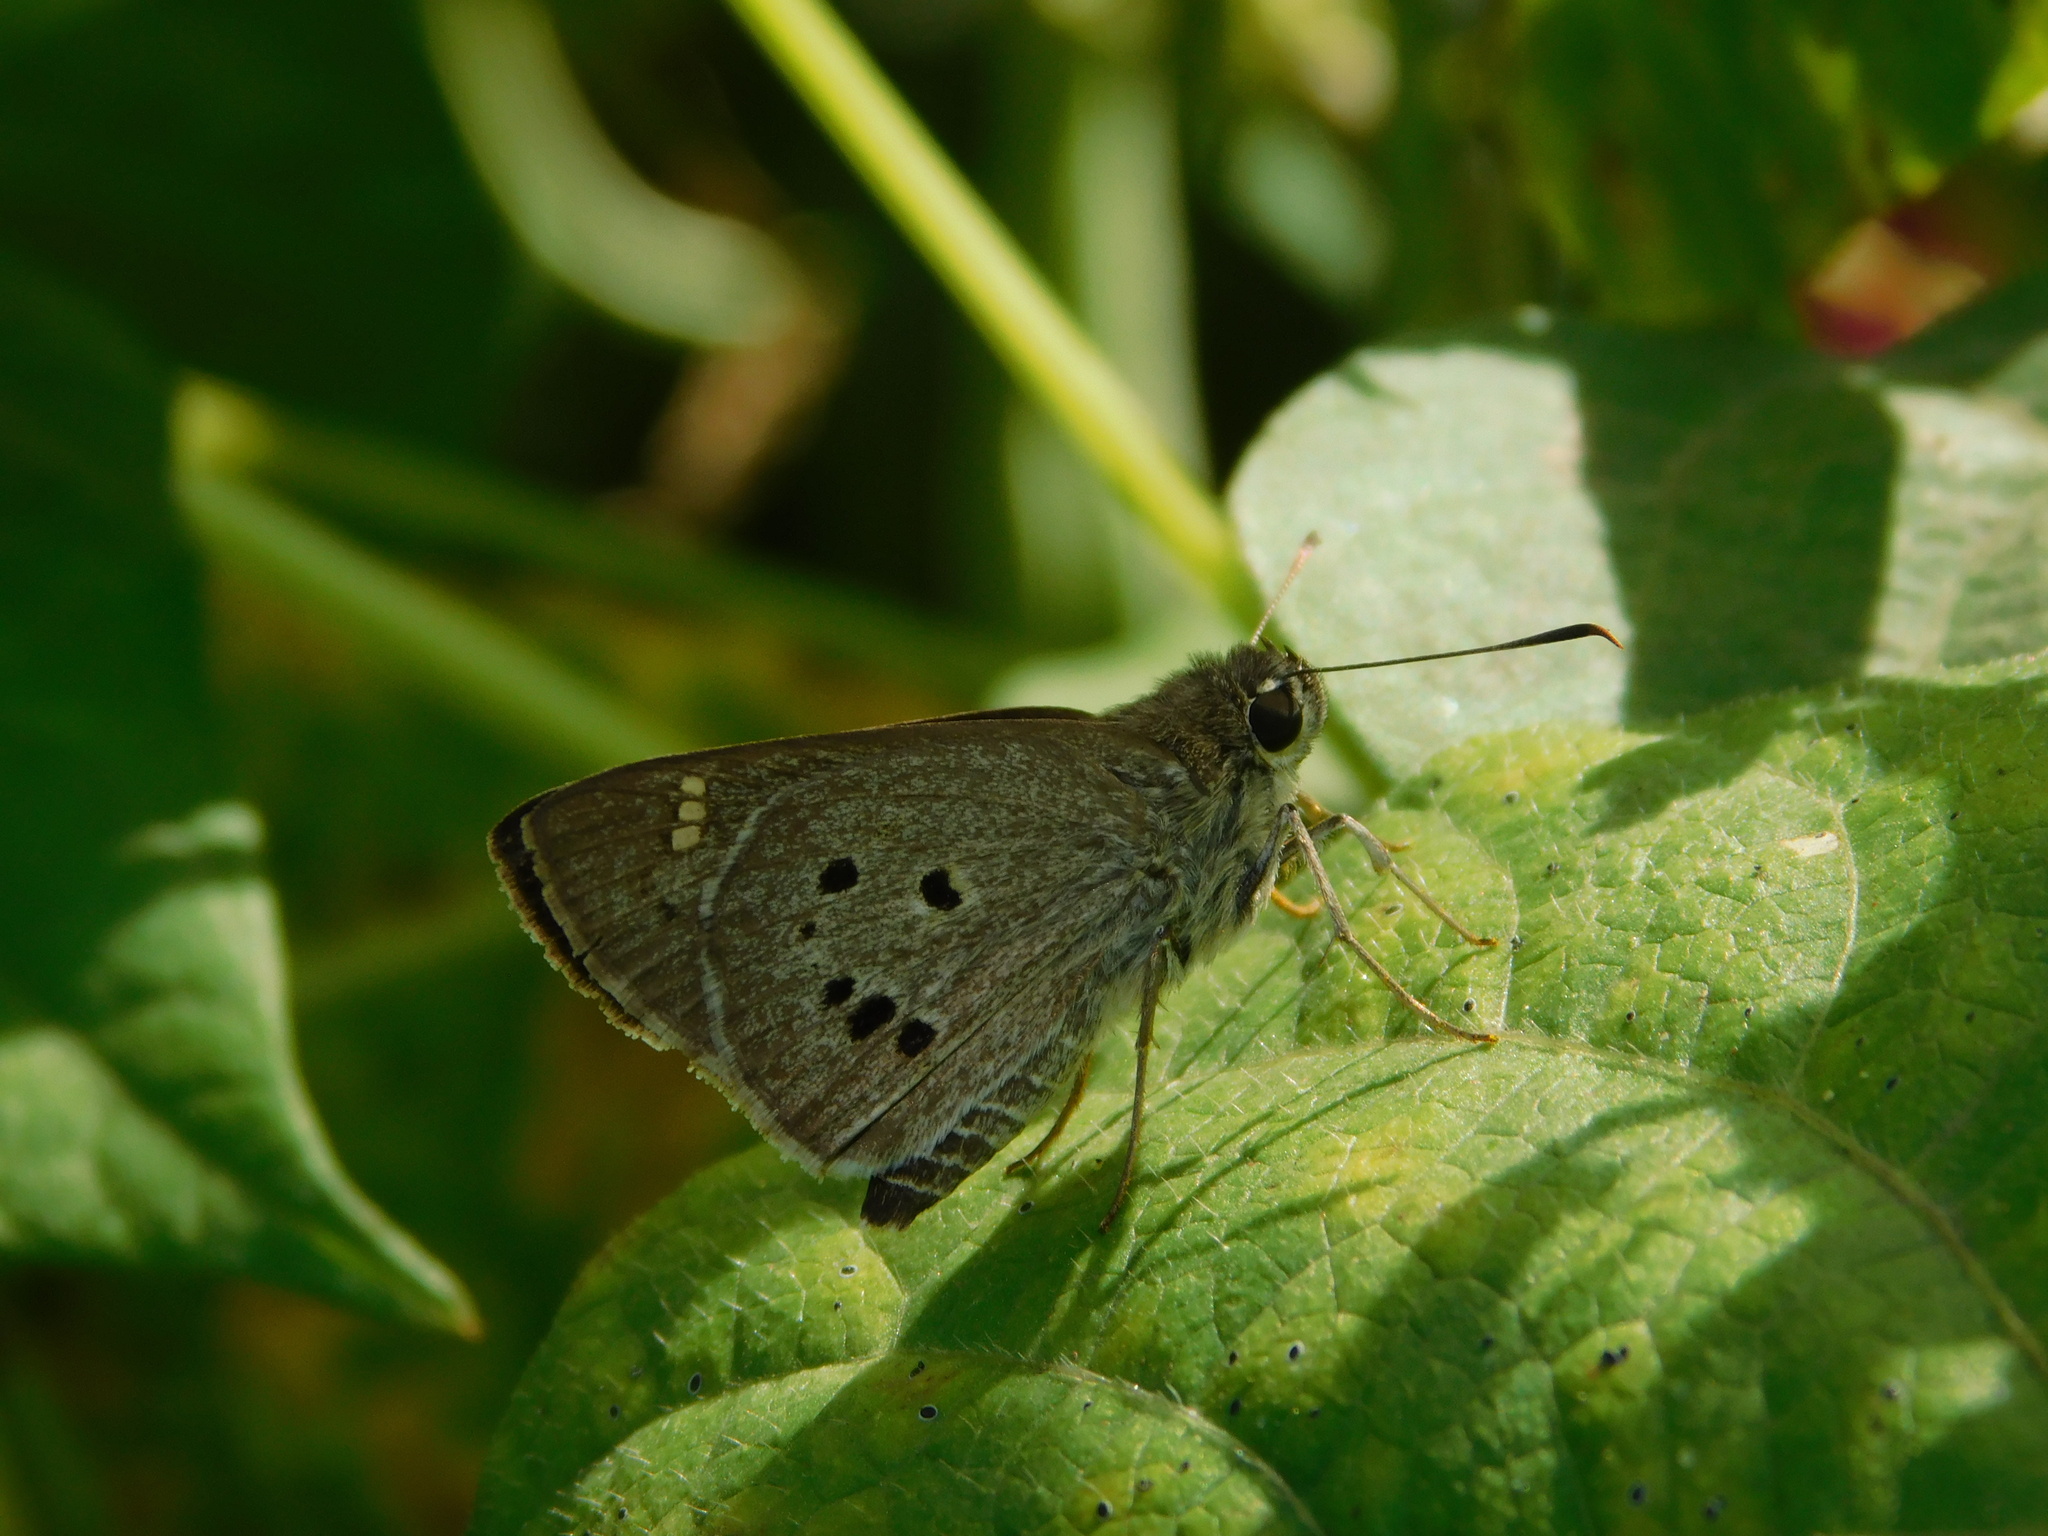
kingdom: Animalia
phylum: Arthropoda
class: Insecta
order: Lepidoptera
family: Hesperiidae
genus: Suastus
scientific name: Suastus gremius
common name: Indian palm bob
